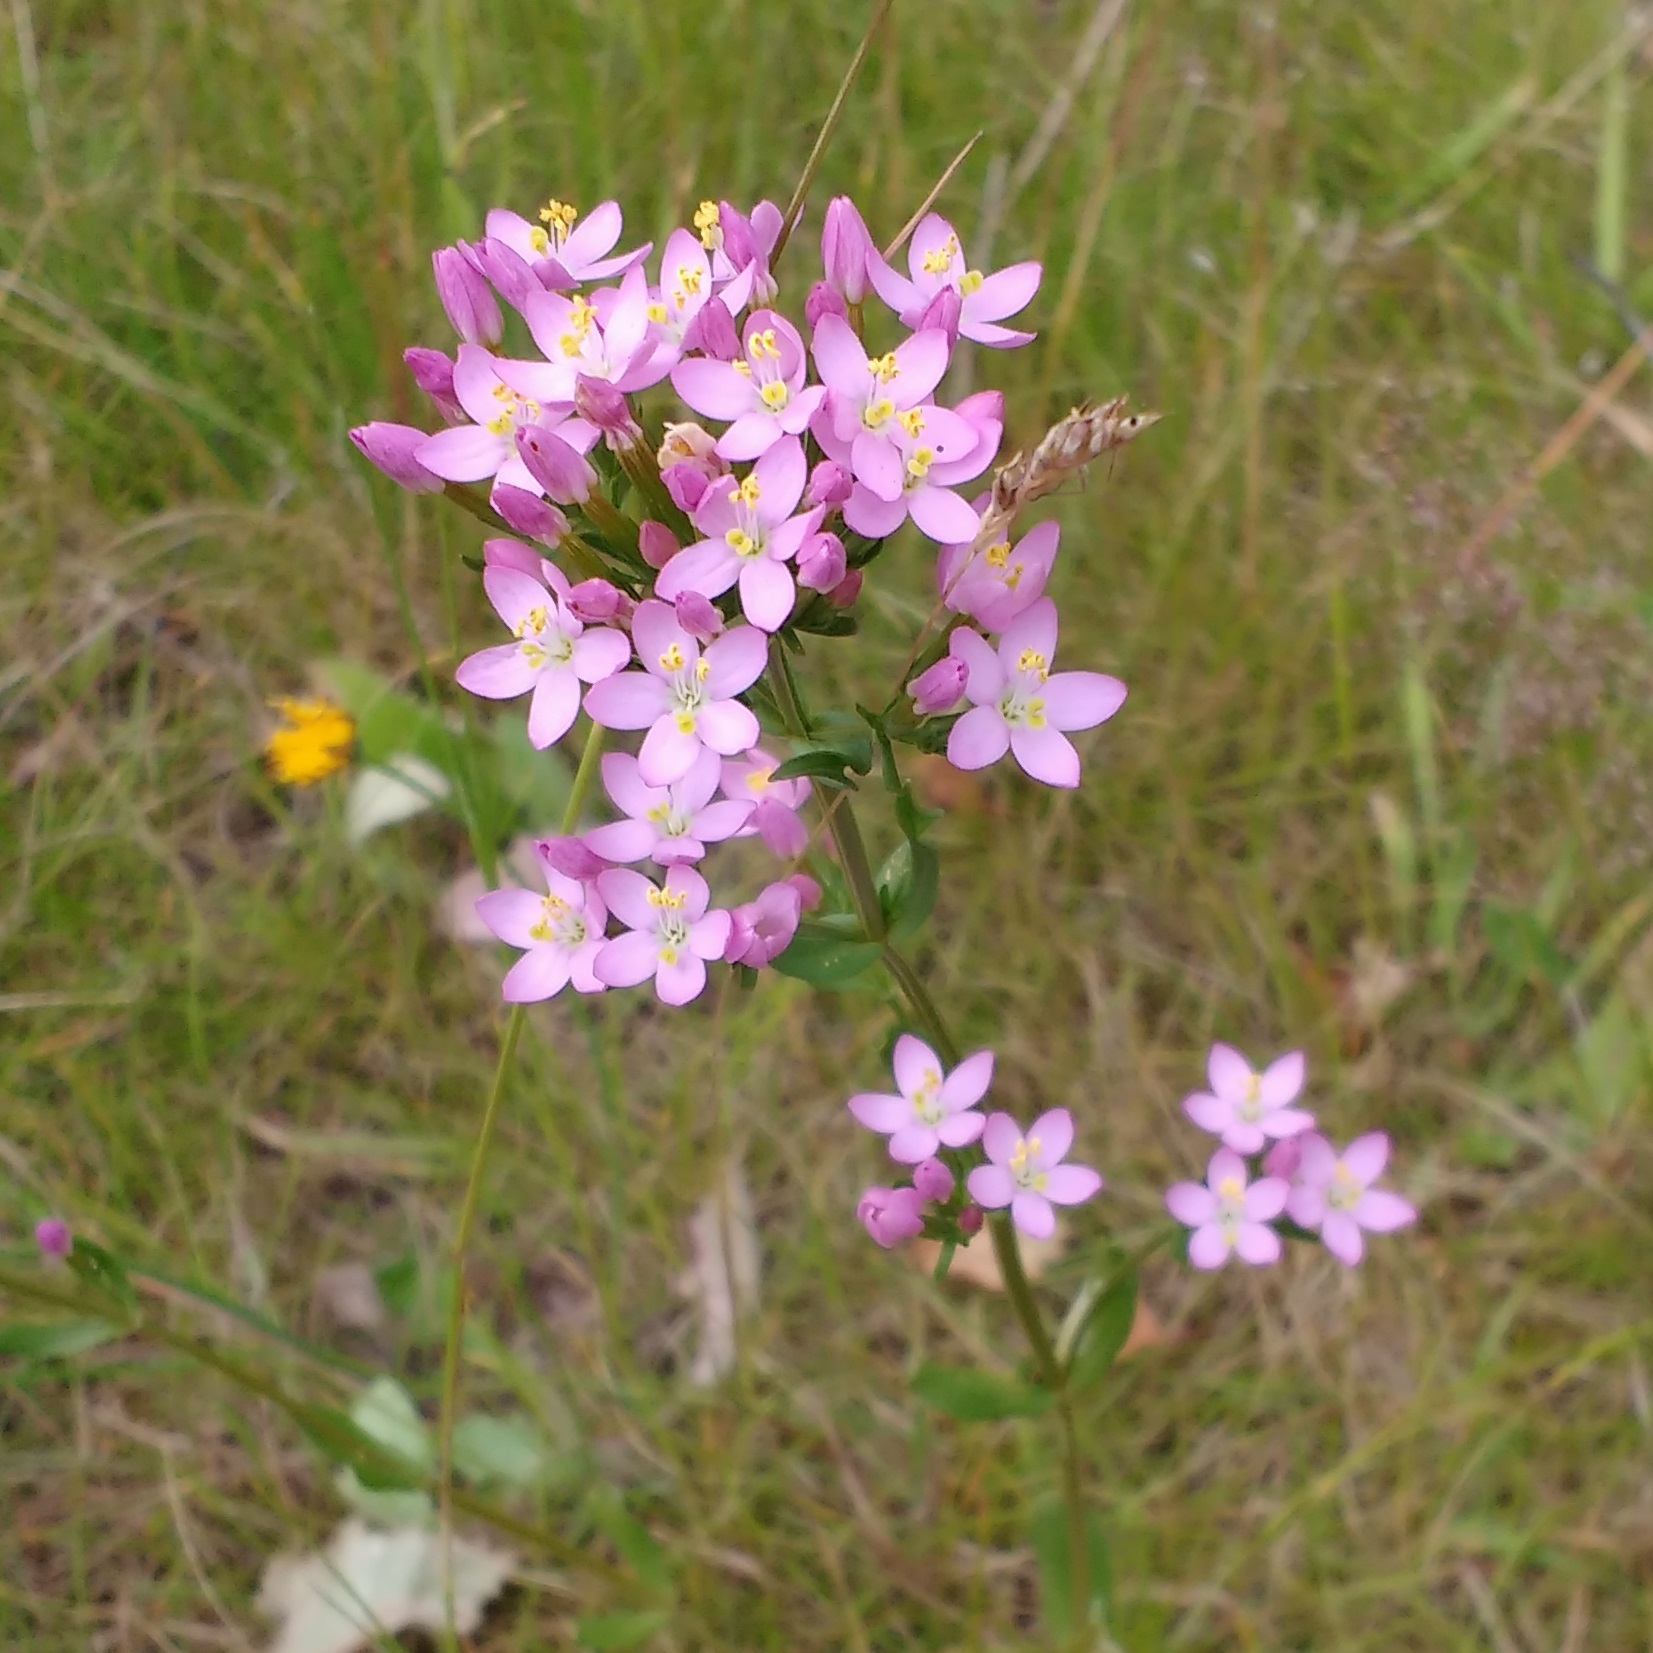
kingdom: Plantae
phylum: Tracheophyta
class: Magnoliopsida
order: Gentianales
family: Gentianaceae
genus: Centaurium
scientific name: Centaurium erythraea
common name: Common centaury
